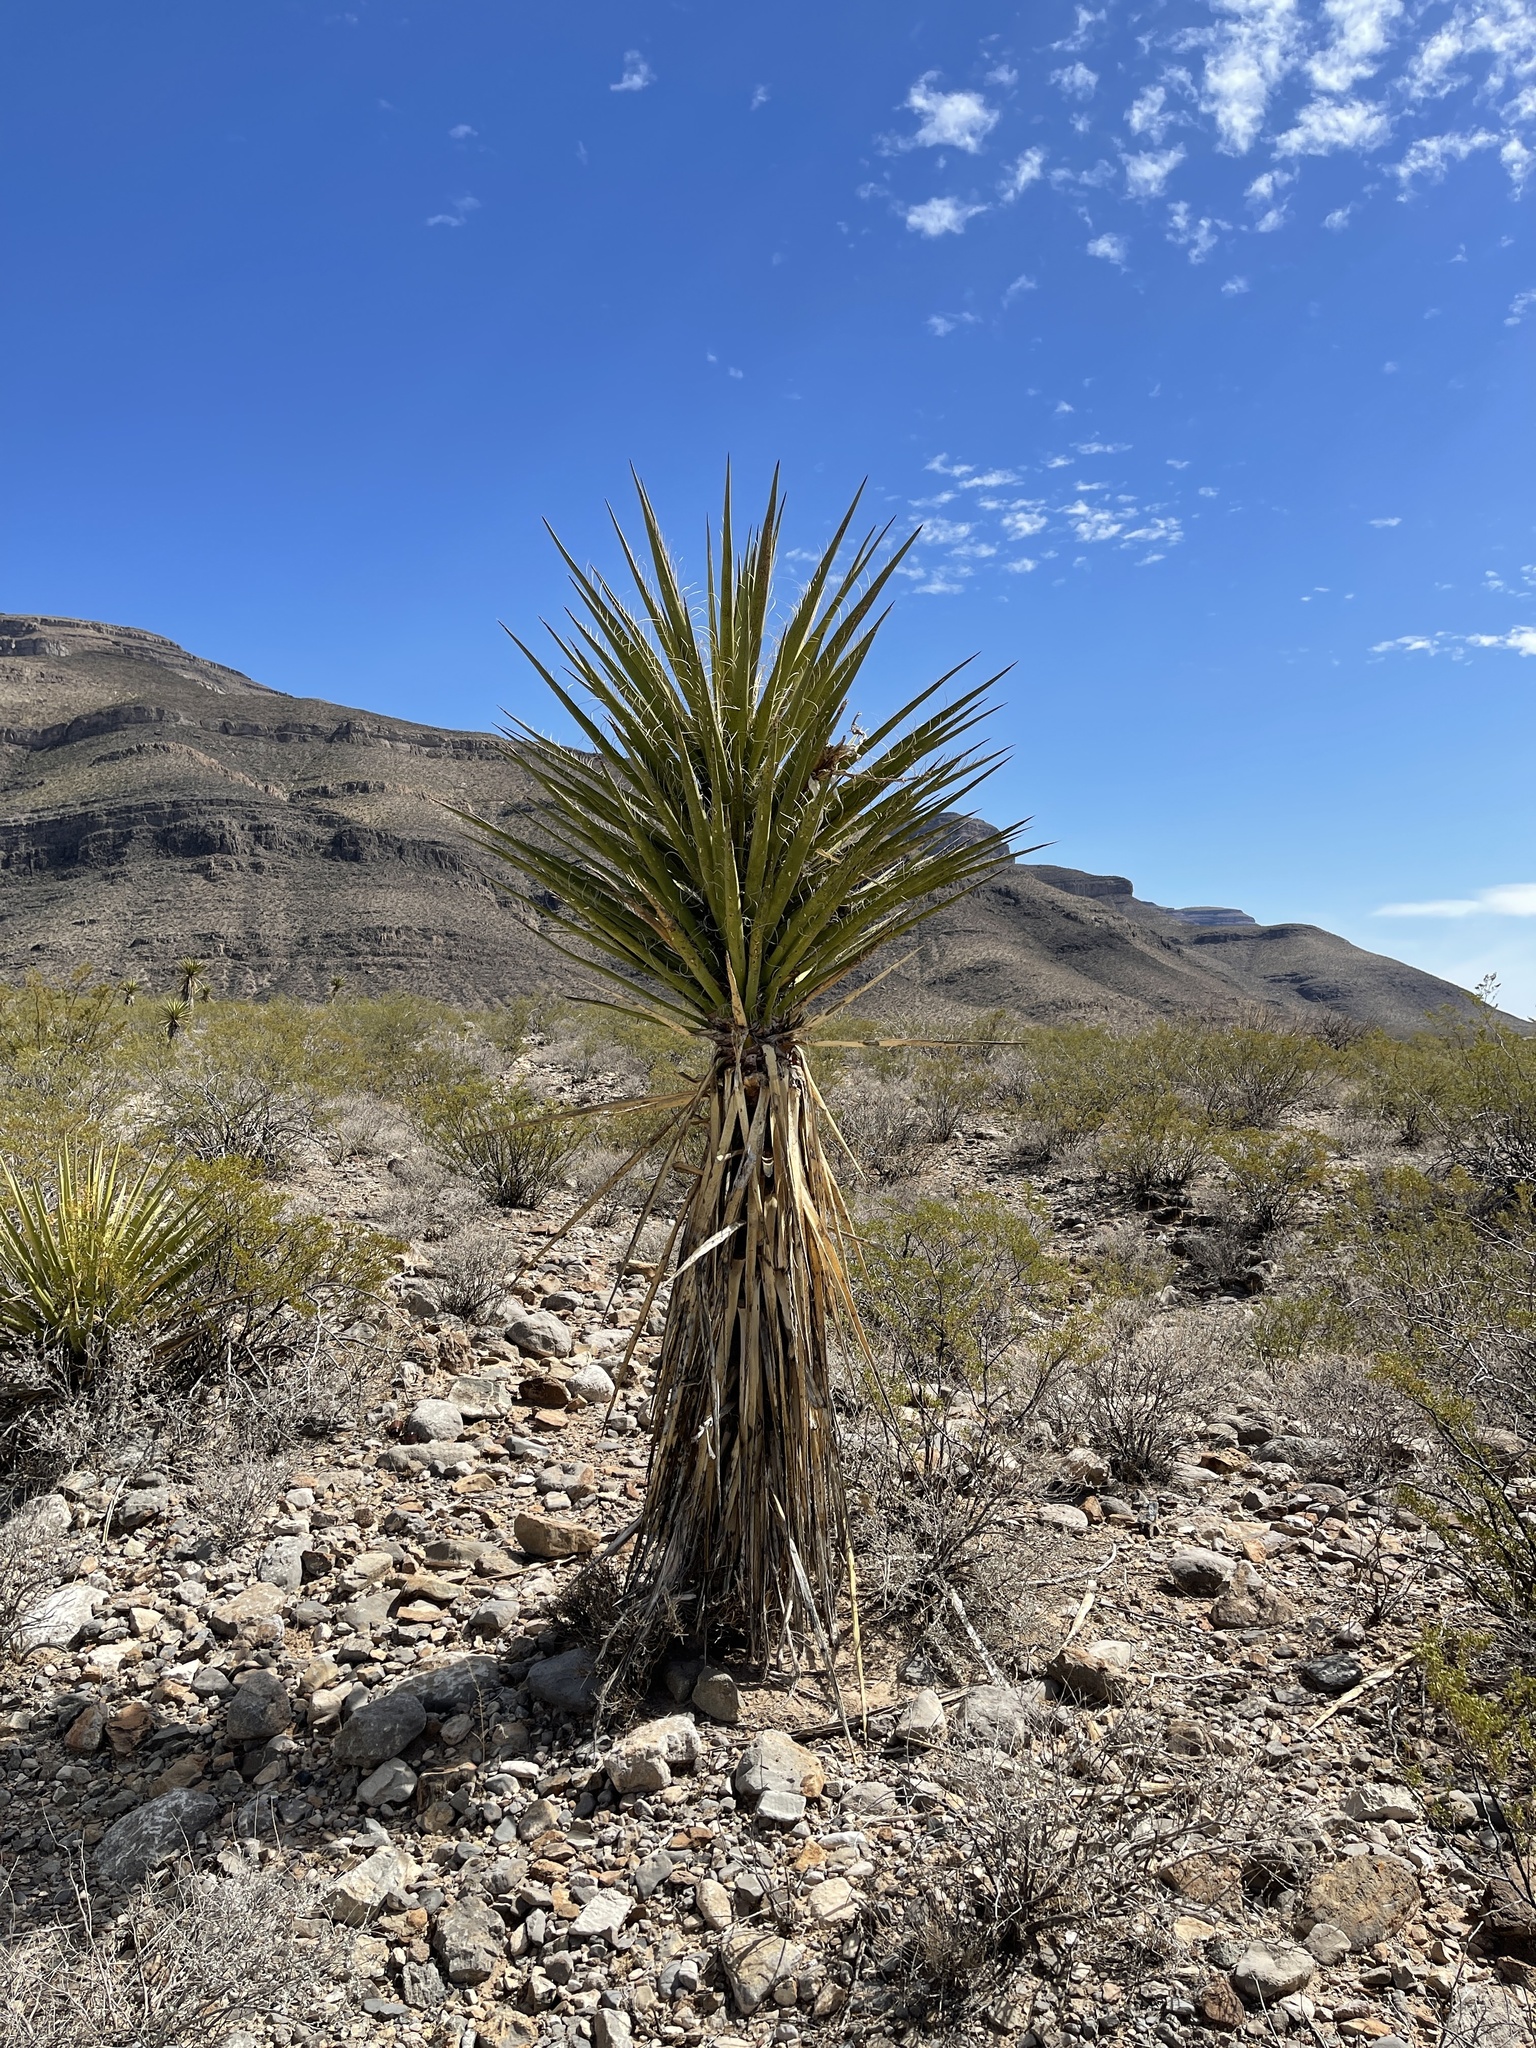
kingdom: Plantae
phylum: Tracheophyta
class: Liliopsida
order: Asparagales
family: Asparagaceae
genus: Yucca
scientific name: Yucca treculiana
